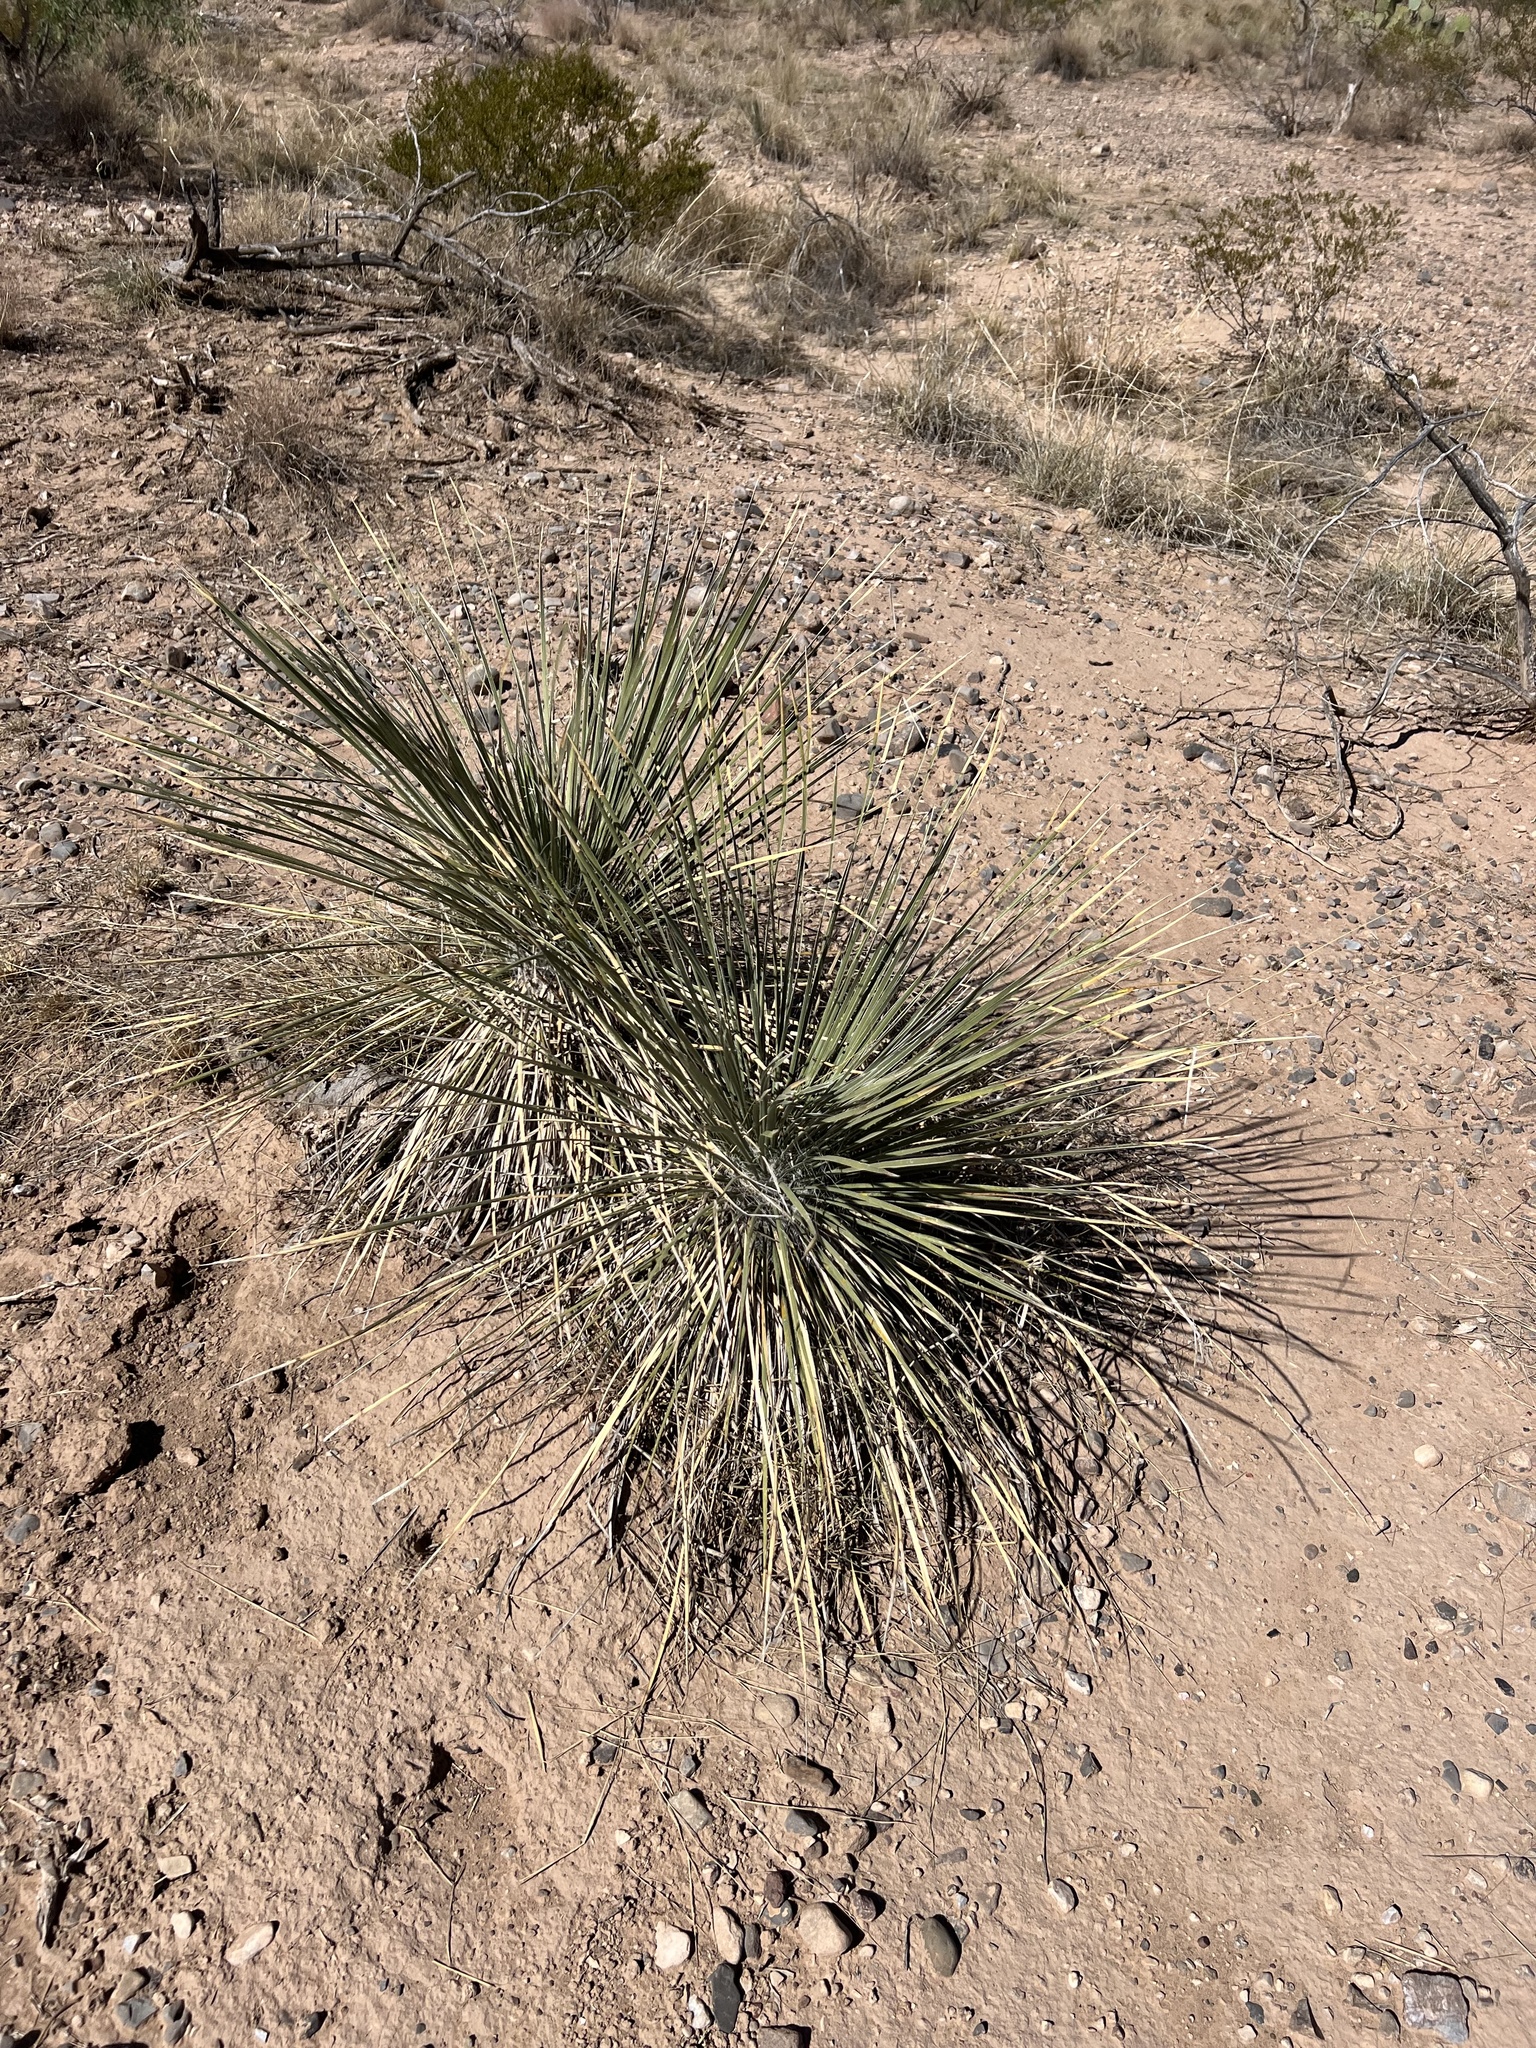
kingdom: Plantae
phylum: Tracheophyta
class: Liliopsida
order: Asparagales
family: Asparagaceae
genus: Yucca
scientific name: Yucca elata
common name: Palmella
